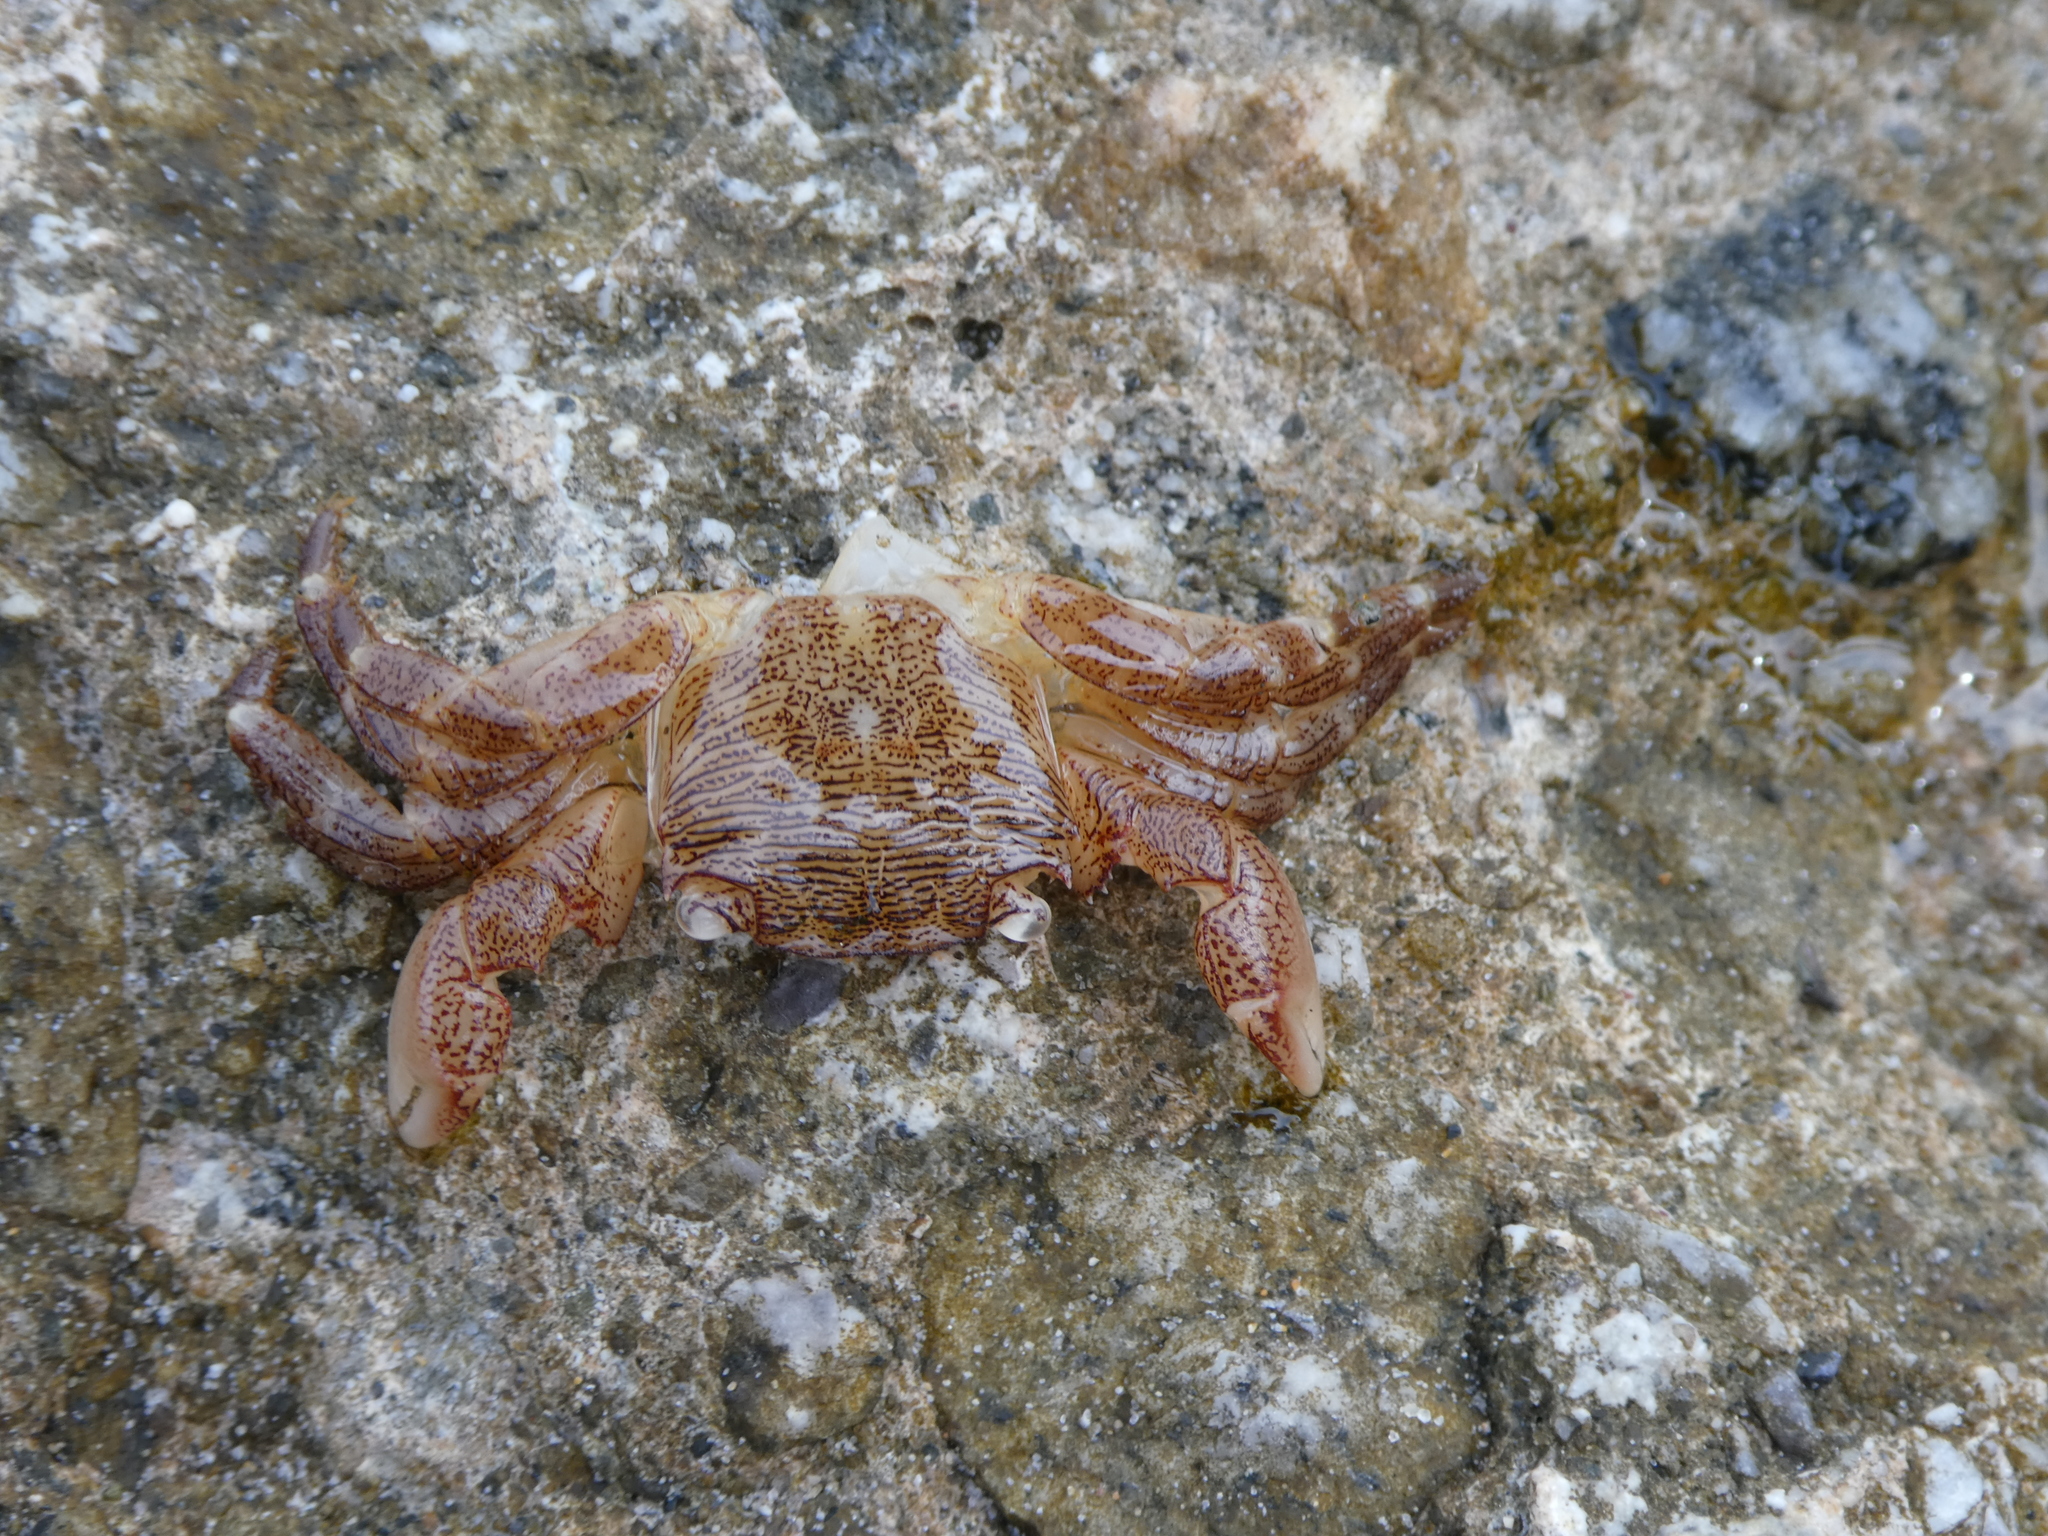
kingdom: Animalia
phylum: Arthropoda
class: Malacostraca
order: Decapoda
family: Grapsidae
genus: Pachygrapsus
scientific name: Pachygrapsus crassipes
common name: Striped shore crab
